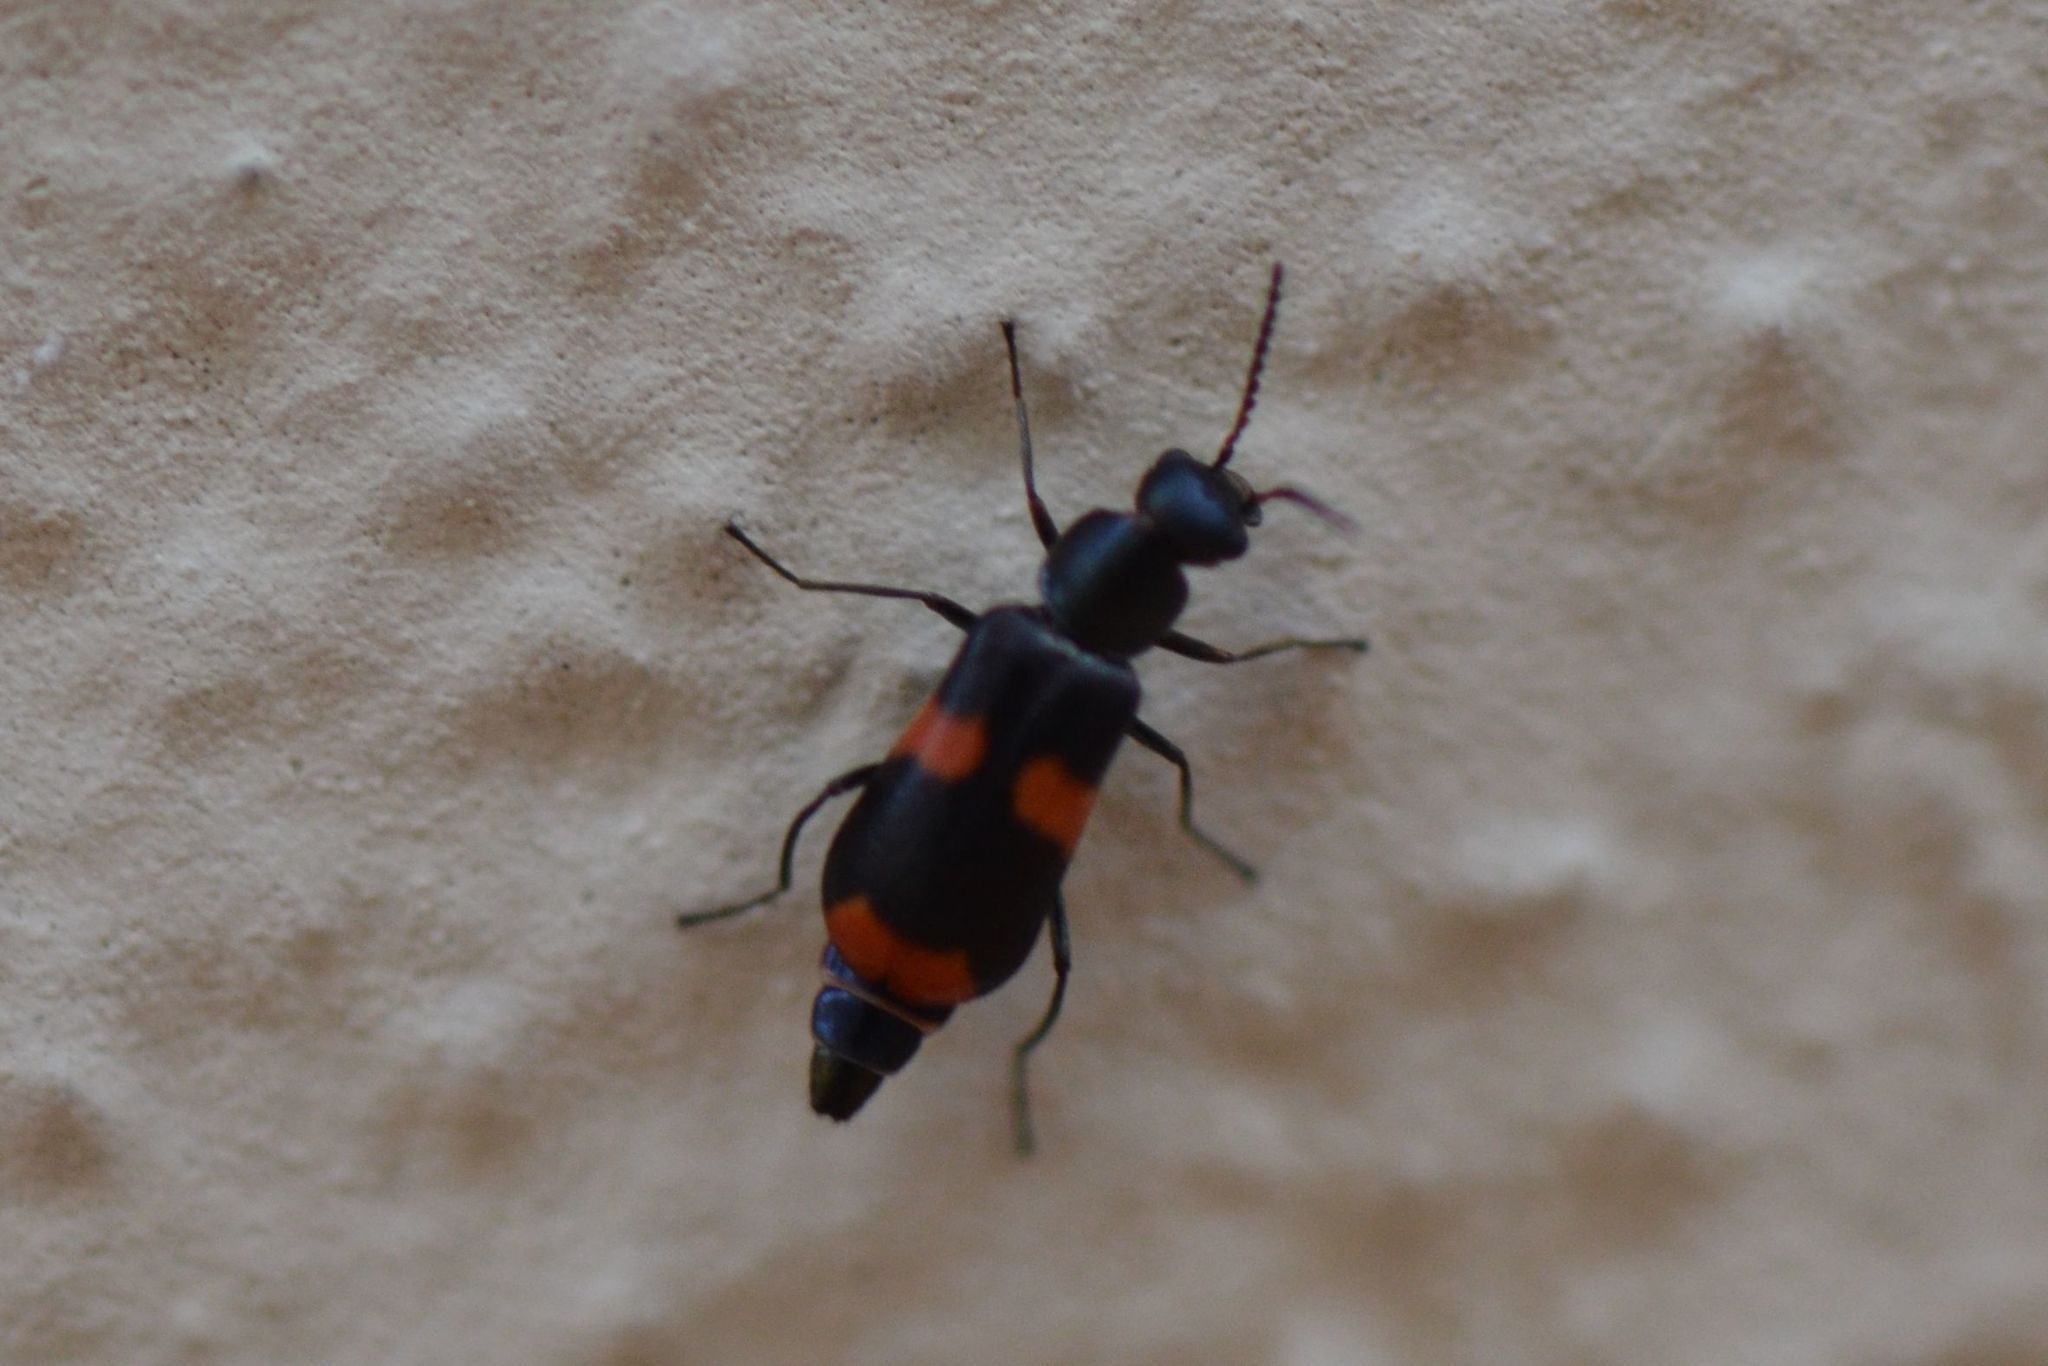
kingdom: Animalia
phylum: Arthropoda
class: Insecta
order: Coleoptera
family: Melyridae
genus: Anthocomus
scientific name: Anthocomus fasciatus
